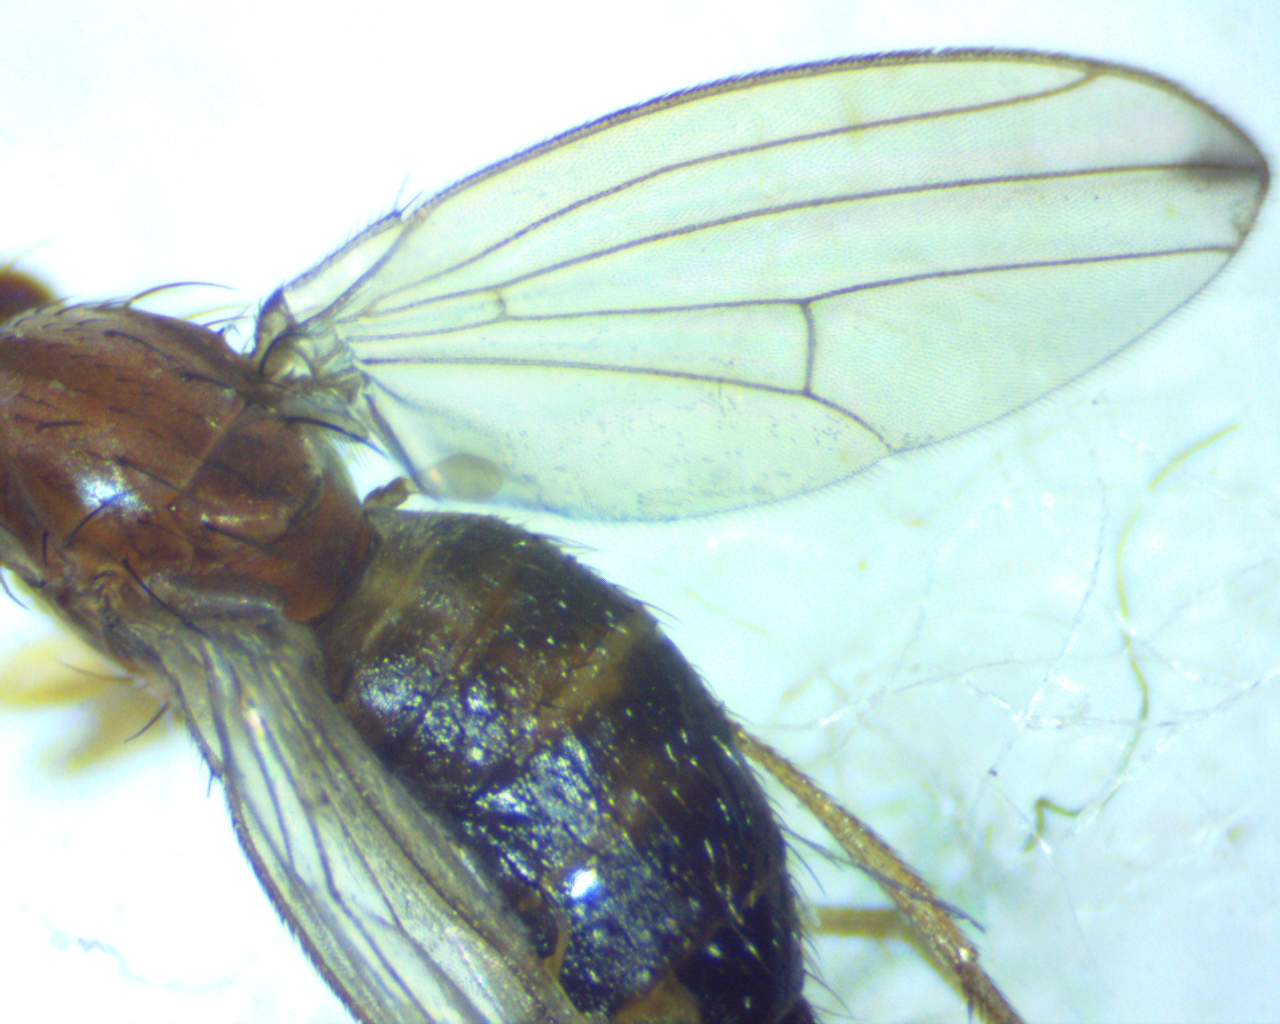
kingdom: Animalia
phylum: Arthropoda
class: Insecta
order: Diptera
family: Drosophilidae
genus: Scaptomyza
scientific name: Scaptomyza adusta
